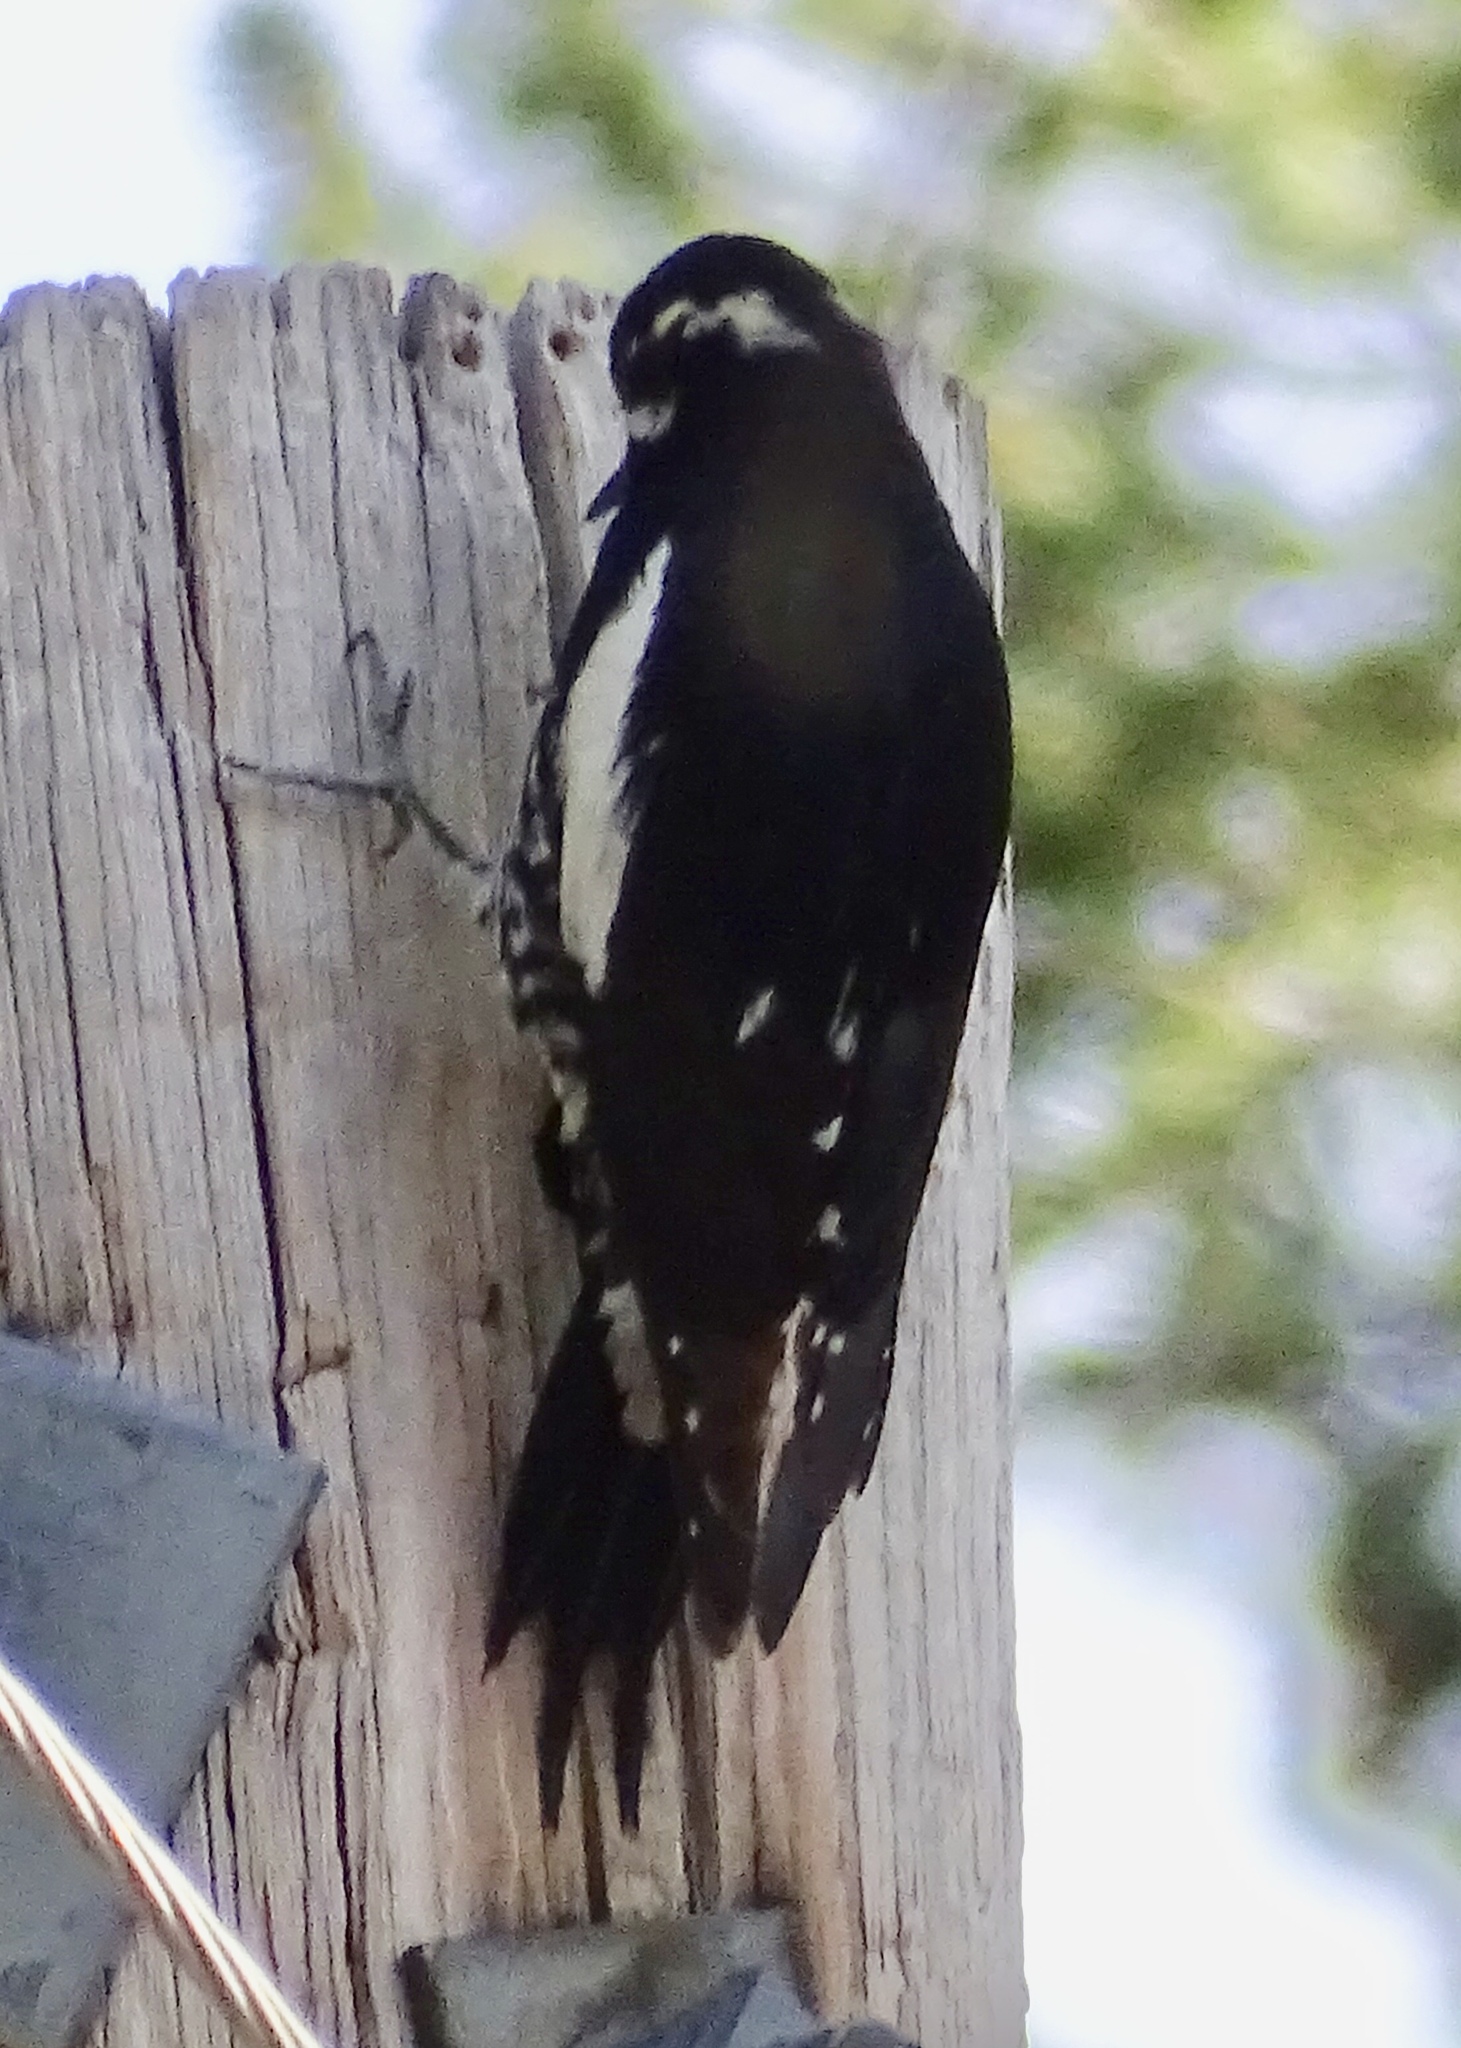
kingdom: Animalia
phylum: Chordata
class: Aves
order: Piciformes
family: Picidae
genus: Sphyrapicus
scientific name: Sphyrapicus thyroideus
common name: Williamson's sapsucker
